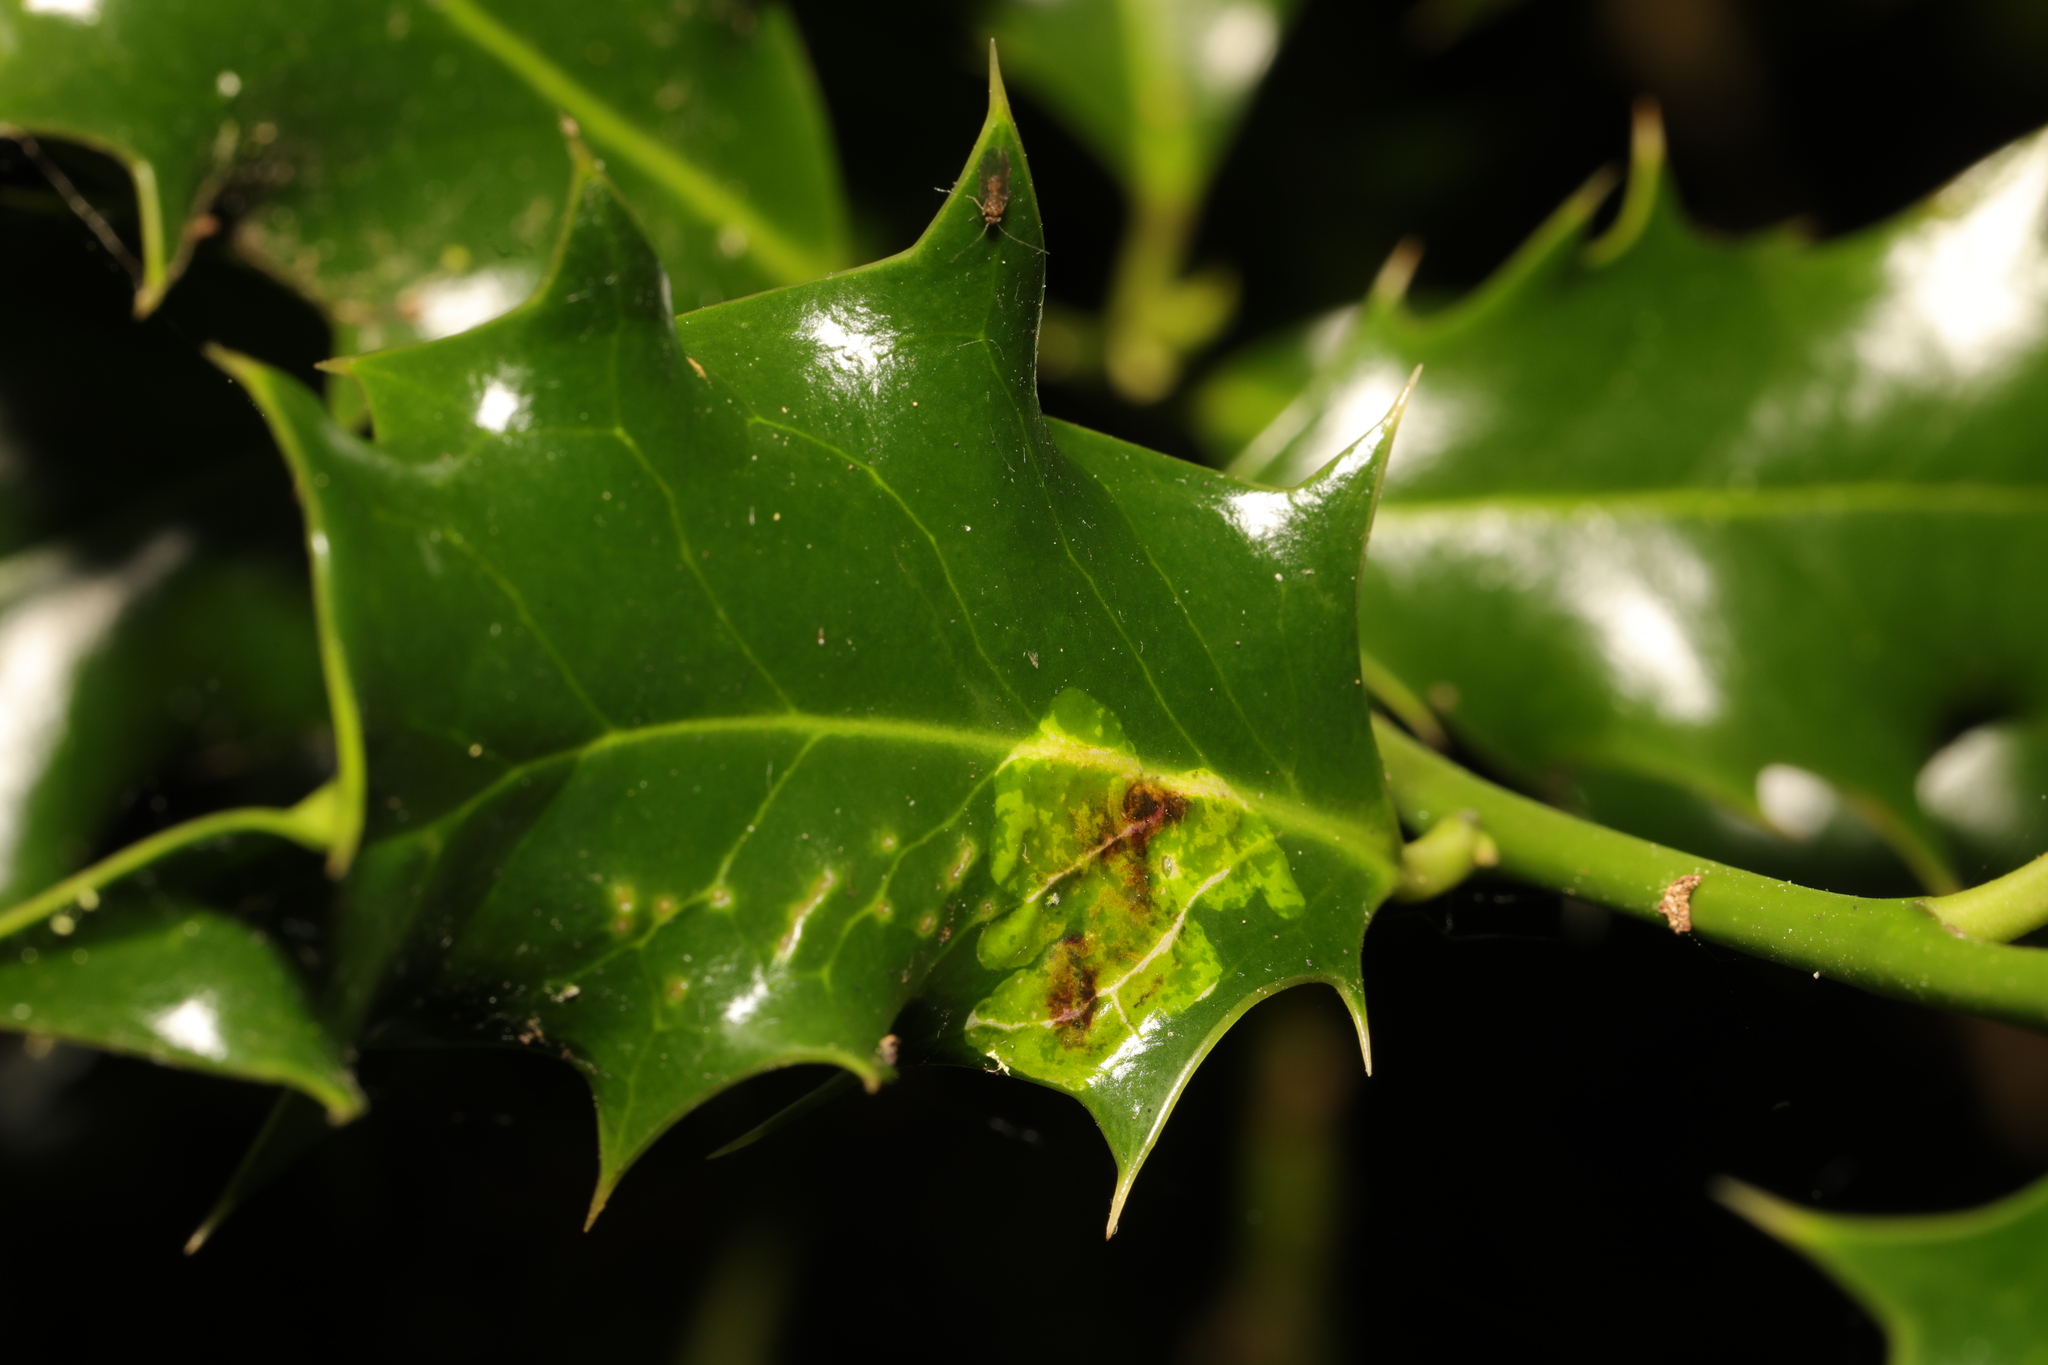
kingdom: Animalia
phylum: Arthropoda
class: Insecta
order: Diptera
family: Agromyzidae
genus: Phytomyza
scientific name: Phytomyza ilicis
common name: Holly leafminer
